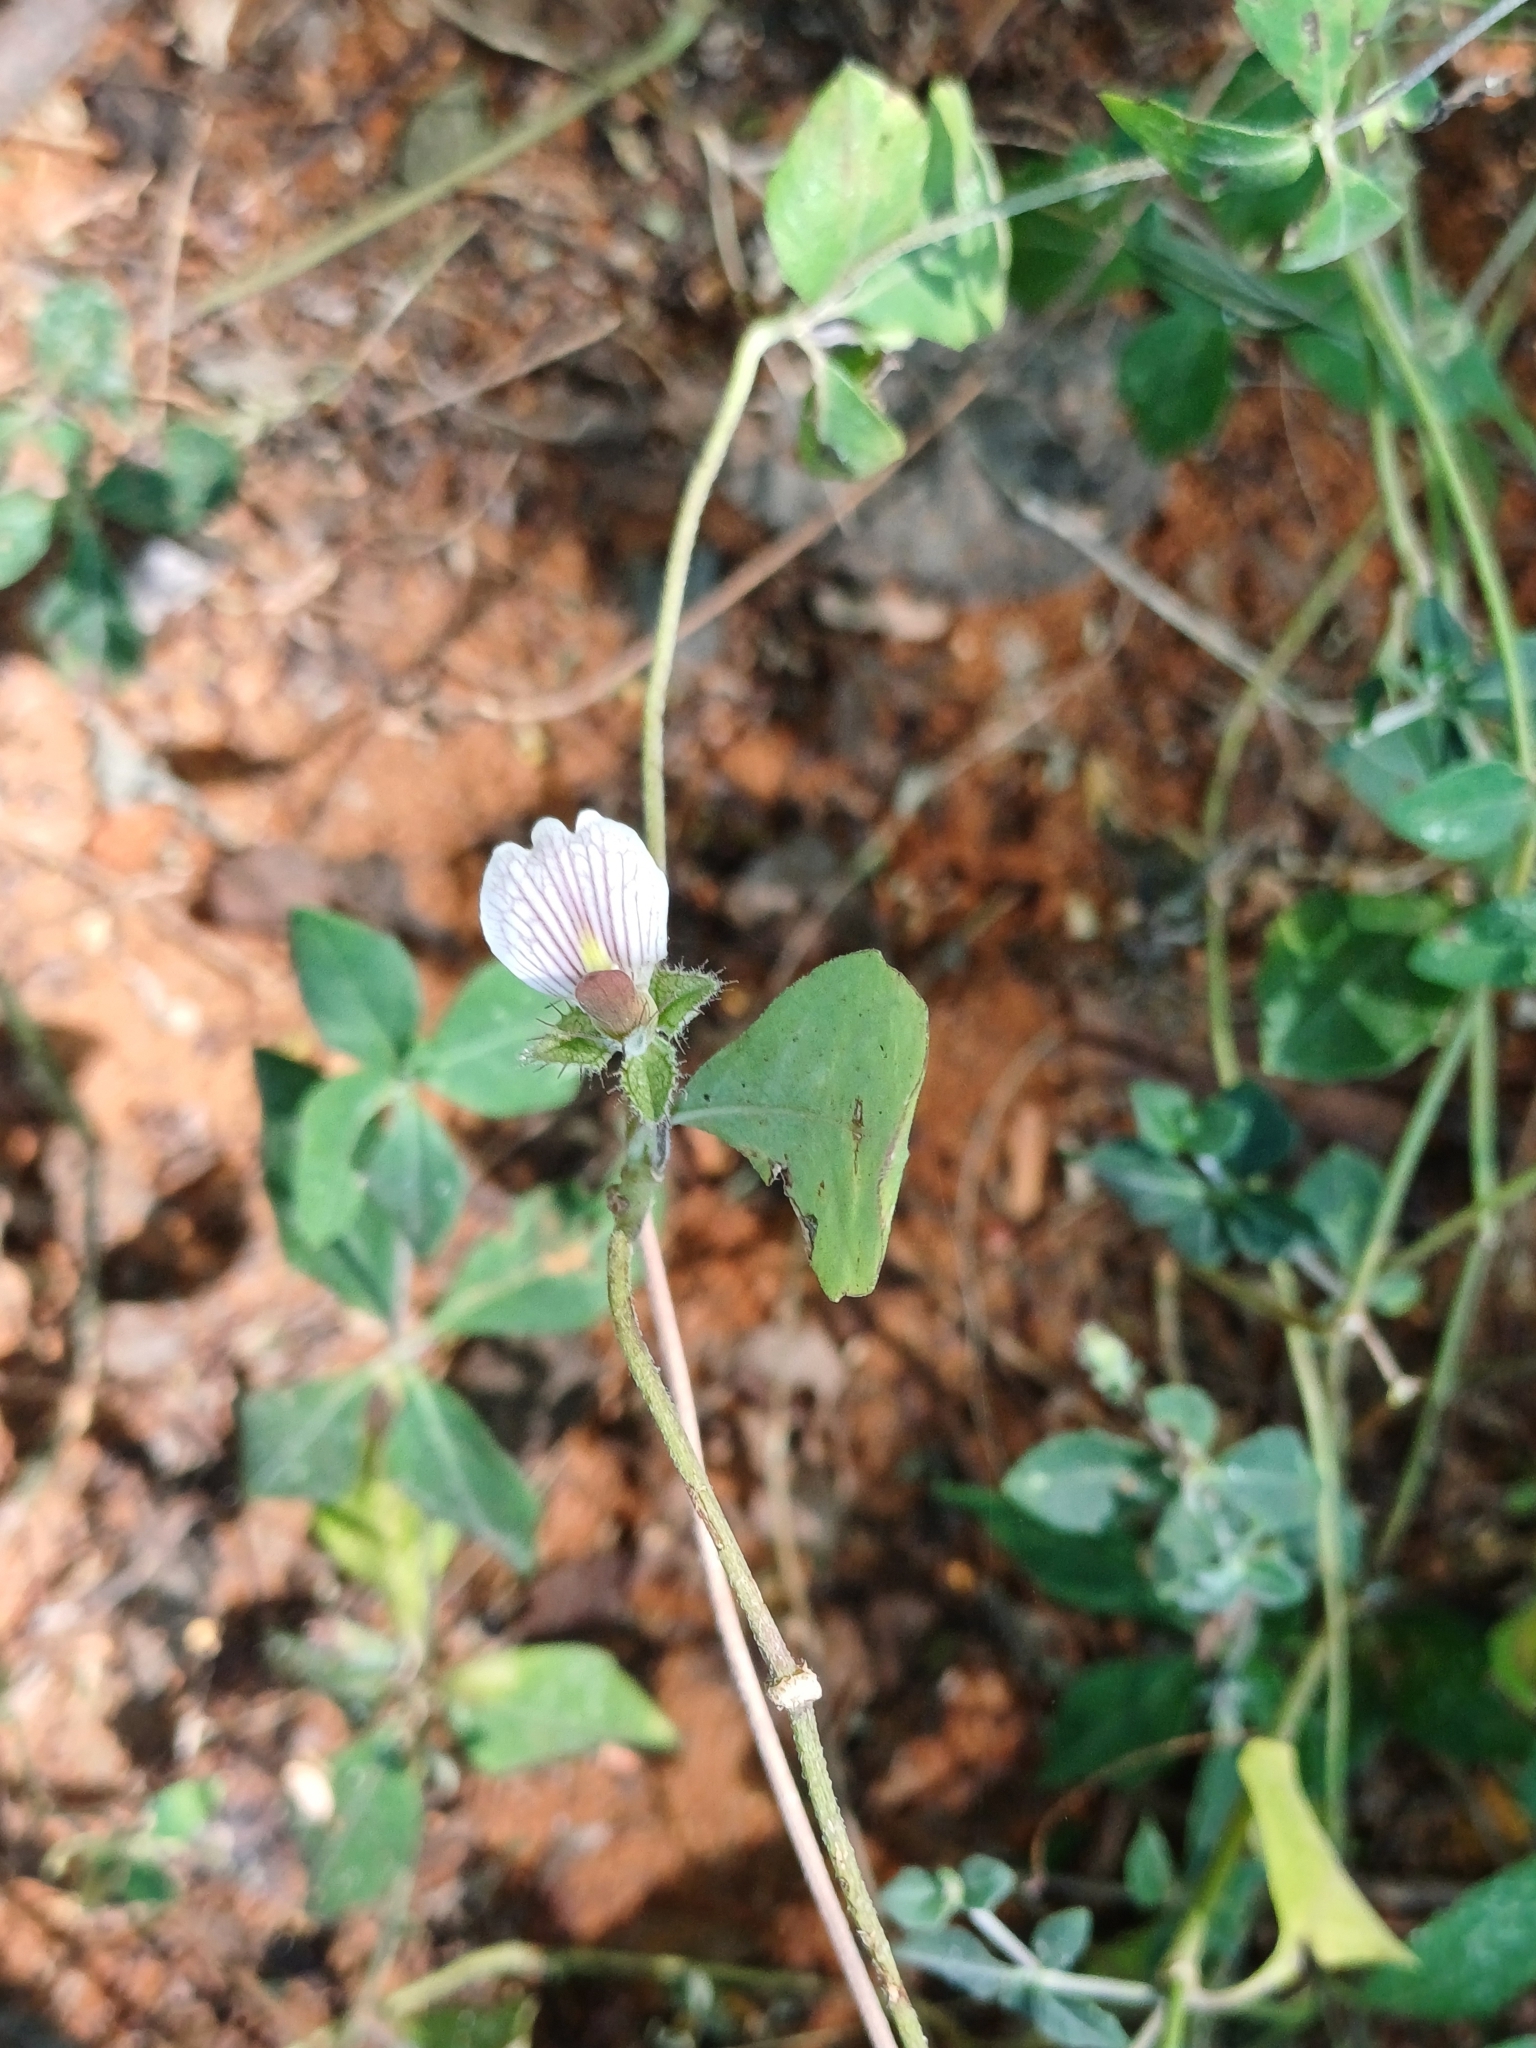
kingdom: Plantae
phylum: Tracheophyta
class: Magnoliopsida
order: Lamiales
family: Acanthaceae
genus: Blepharis
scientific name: Blepharis maderaspatensis
